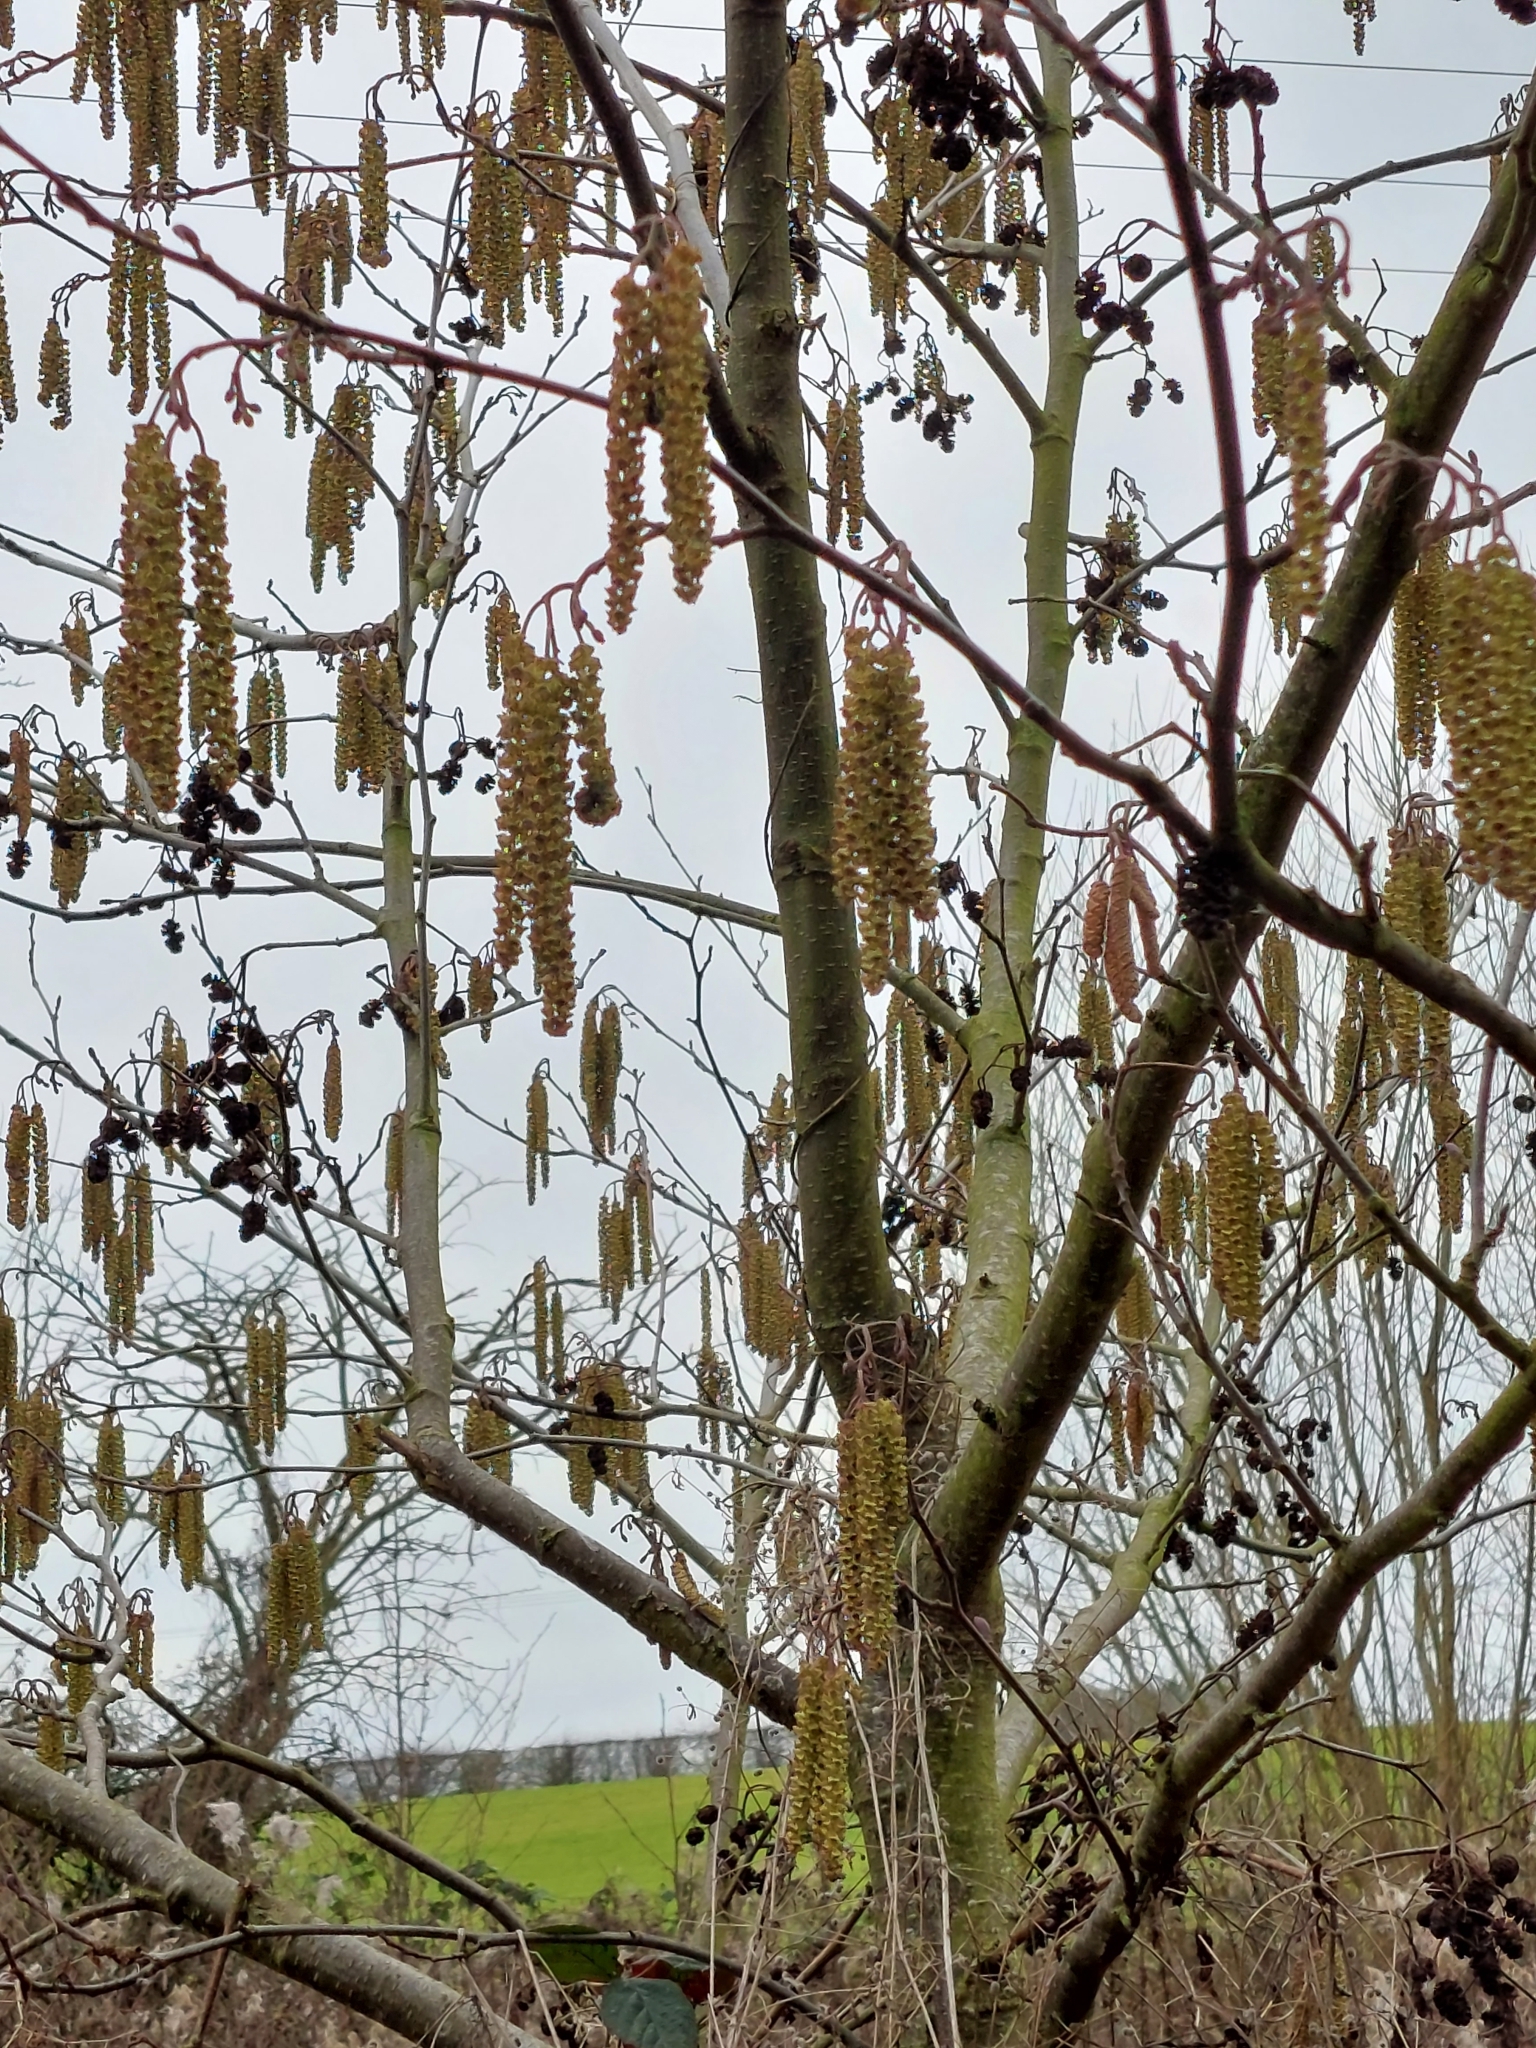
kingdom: Plantae
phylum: Tracheophyta
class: Magnoliopsida
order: Fagales
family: Betulaceae
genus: Corylus
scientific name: Corylus avellana
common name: European hazel
